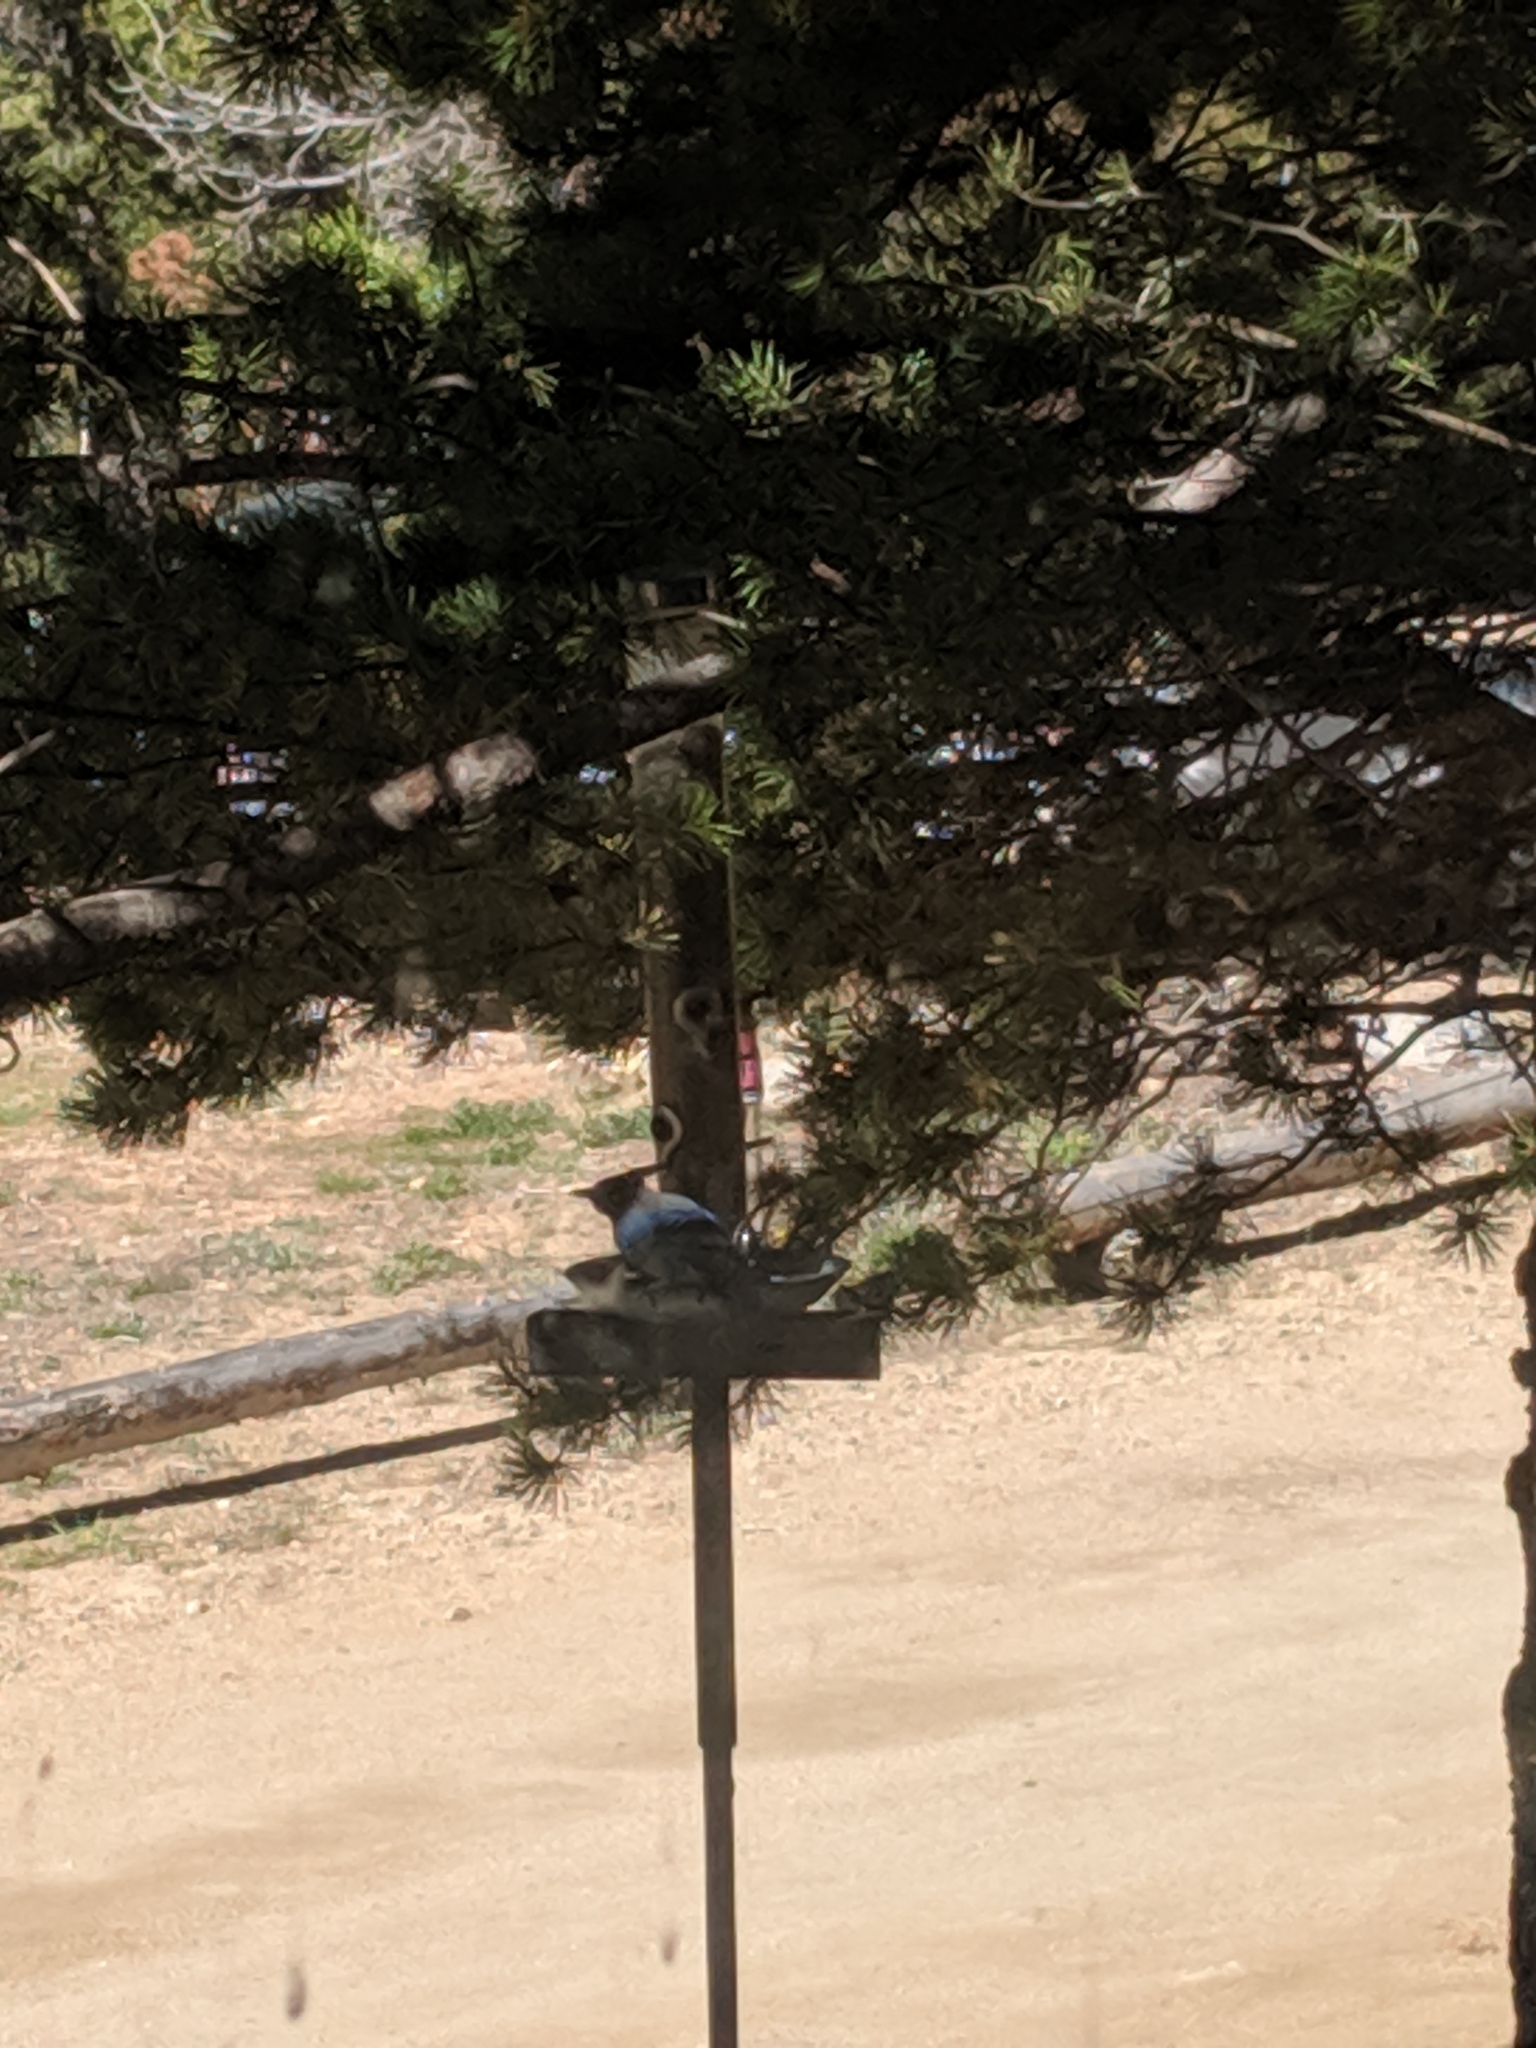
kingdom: Animalia
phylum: Chordata
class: Aves
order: Passeriformes
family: Corvidae
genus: Cyanocitta
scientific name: Cyanocitta stelleri
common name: Steller's jay
